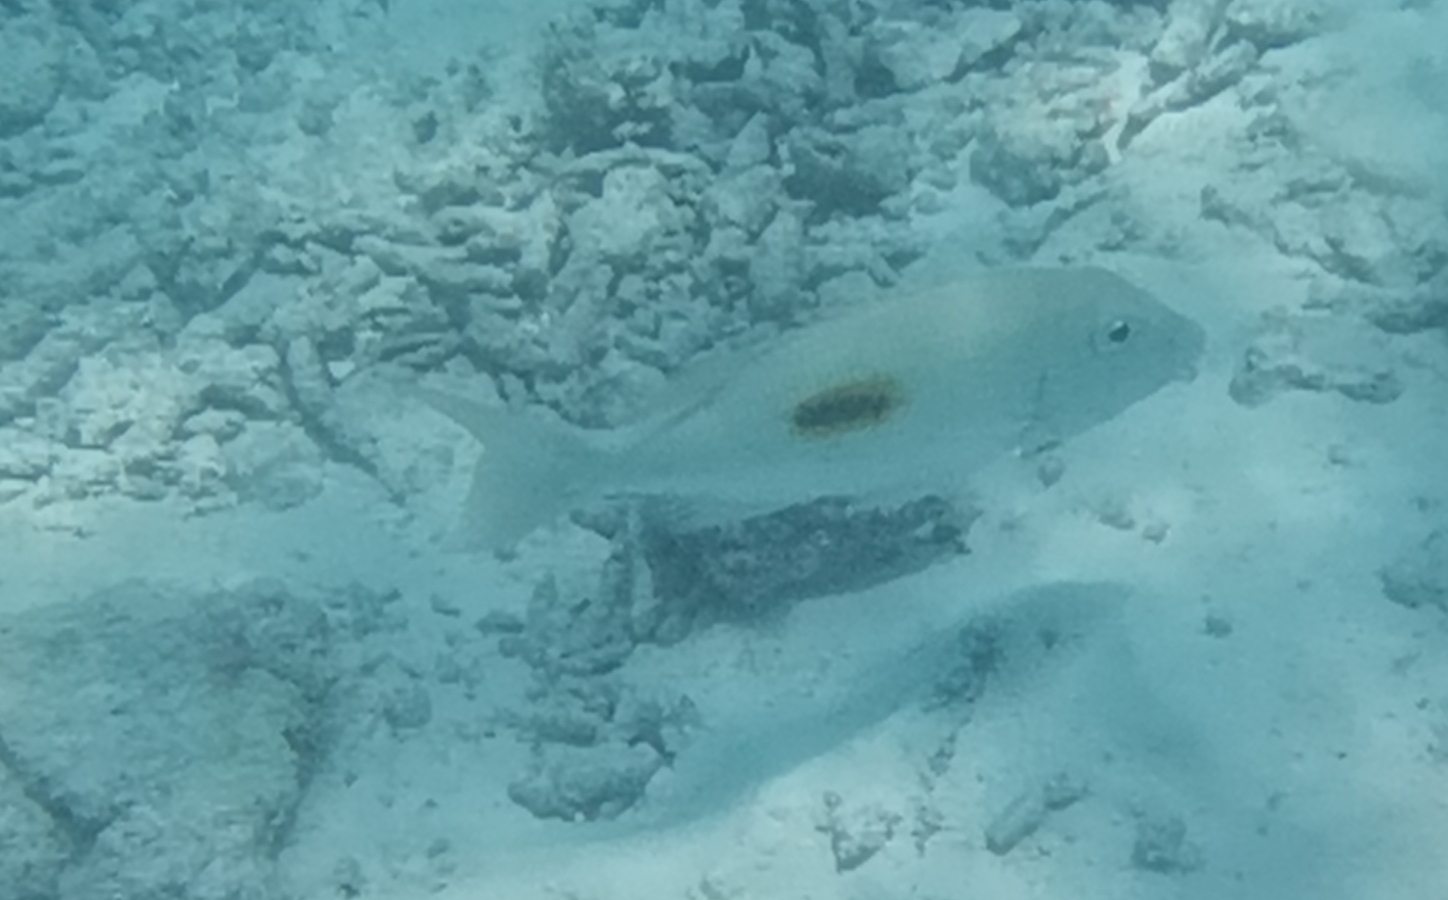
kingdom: Animalia
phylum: Chordata
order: Perciformes
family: Lethrinidae
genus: Lethrinus
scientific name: Lethrinus harak
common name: Blackspot emperor
